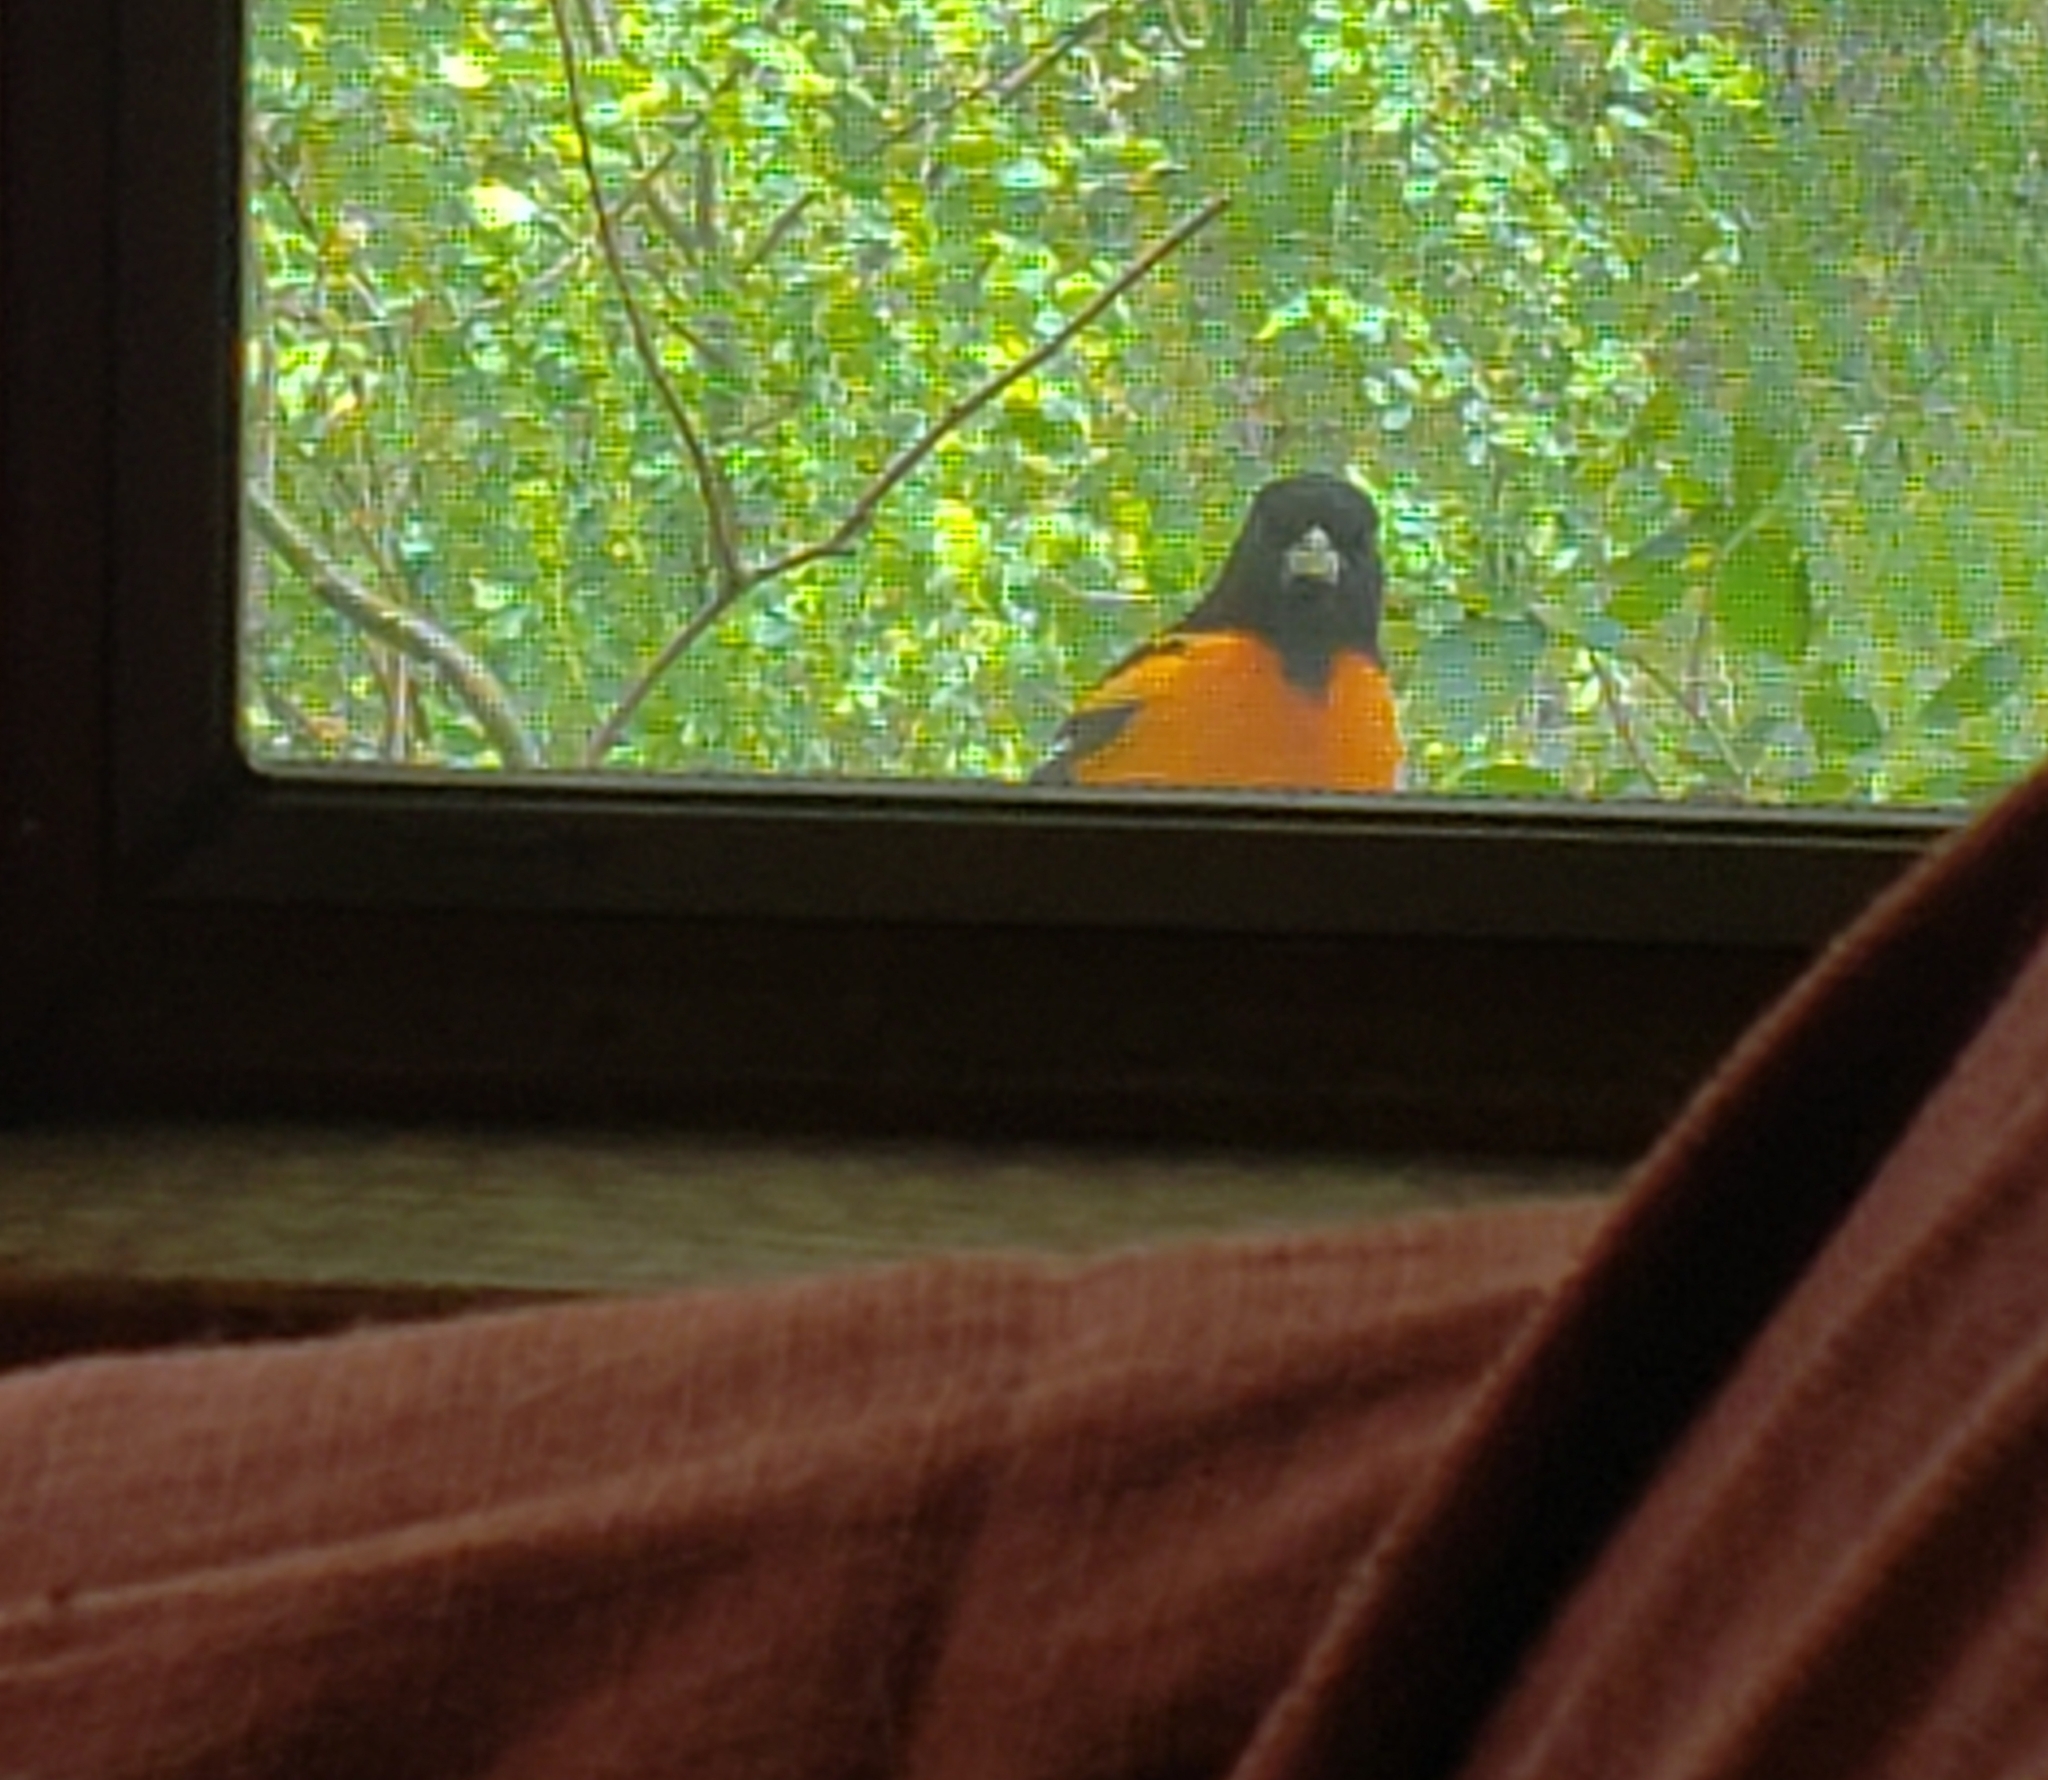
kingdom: Animalia
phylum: Chordata
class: Aves
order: Passeriformes
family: Icteridae
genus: Icterus
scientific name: Icterus galbula
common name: Baltimore oriole
